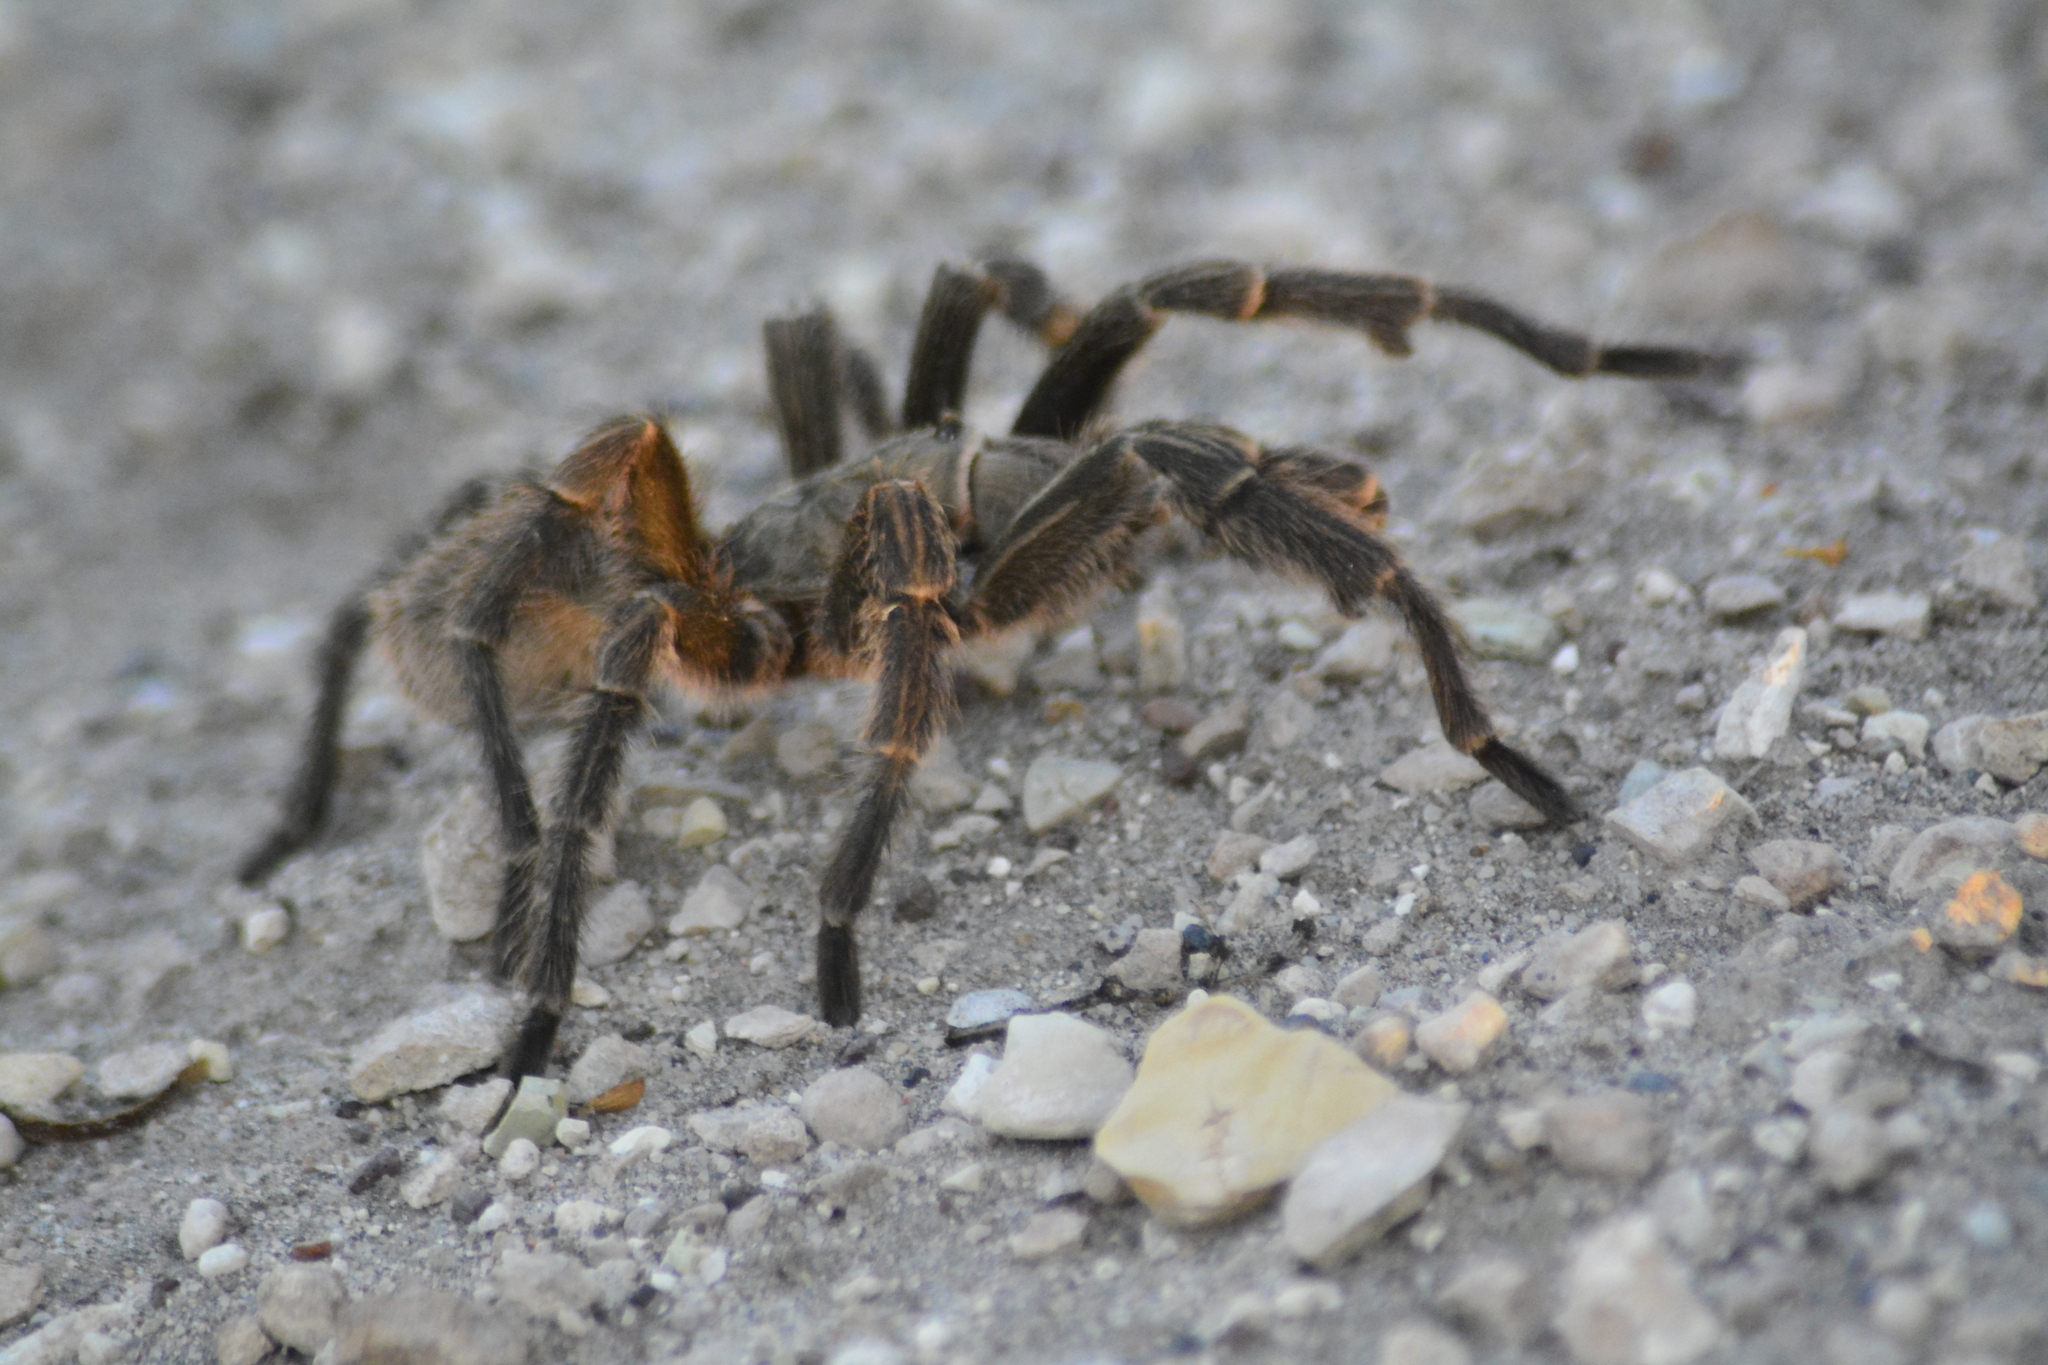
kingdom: Animalia
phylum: Arthropoda
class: Arachnida
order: Araneae
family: Theraphosidae
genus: Grammostola
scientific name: Grammostola doeringi
